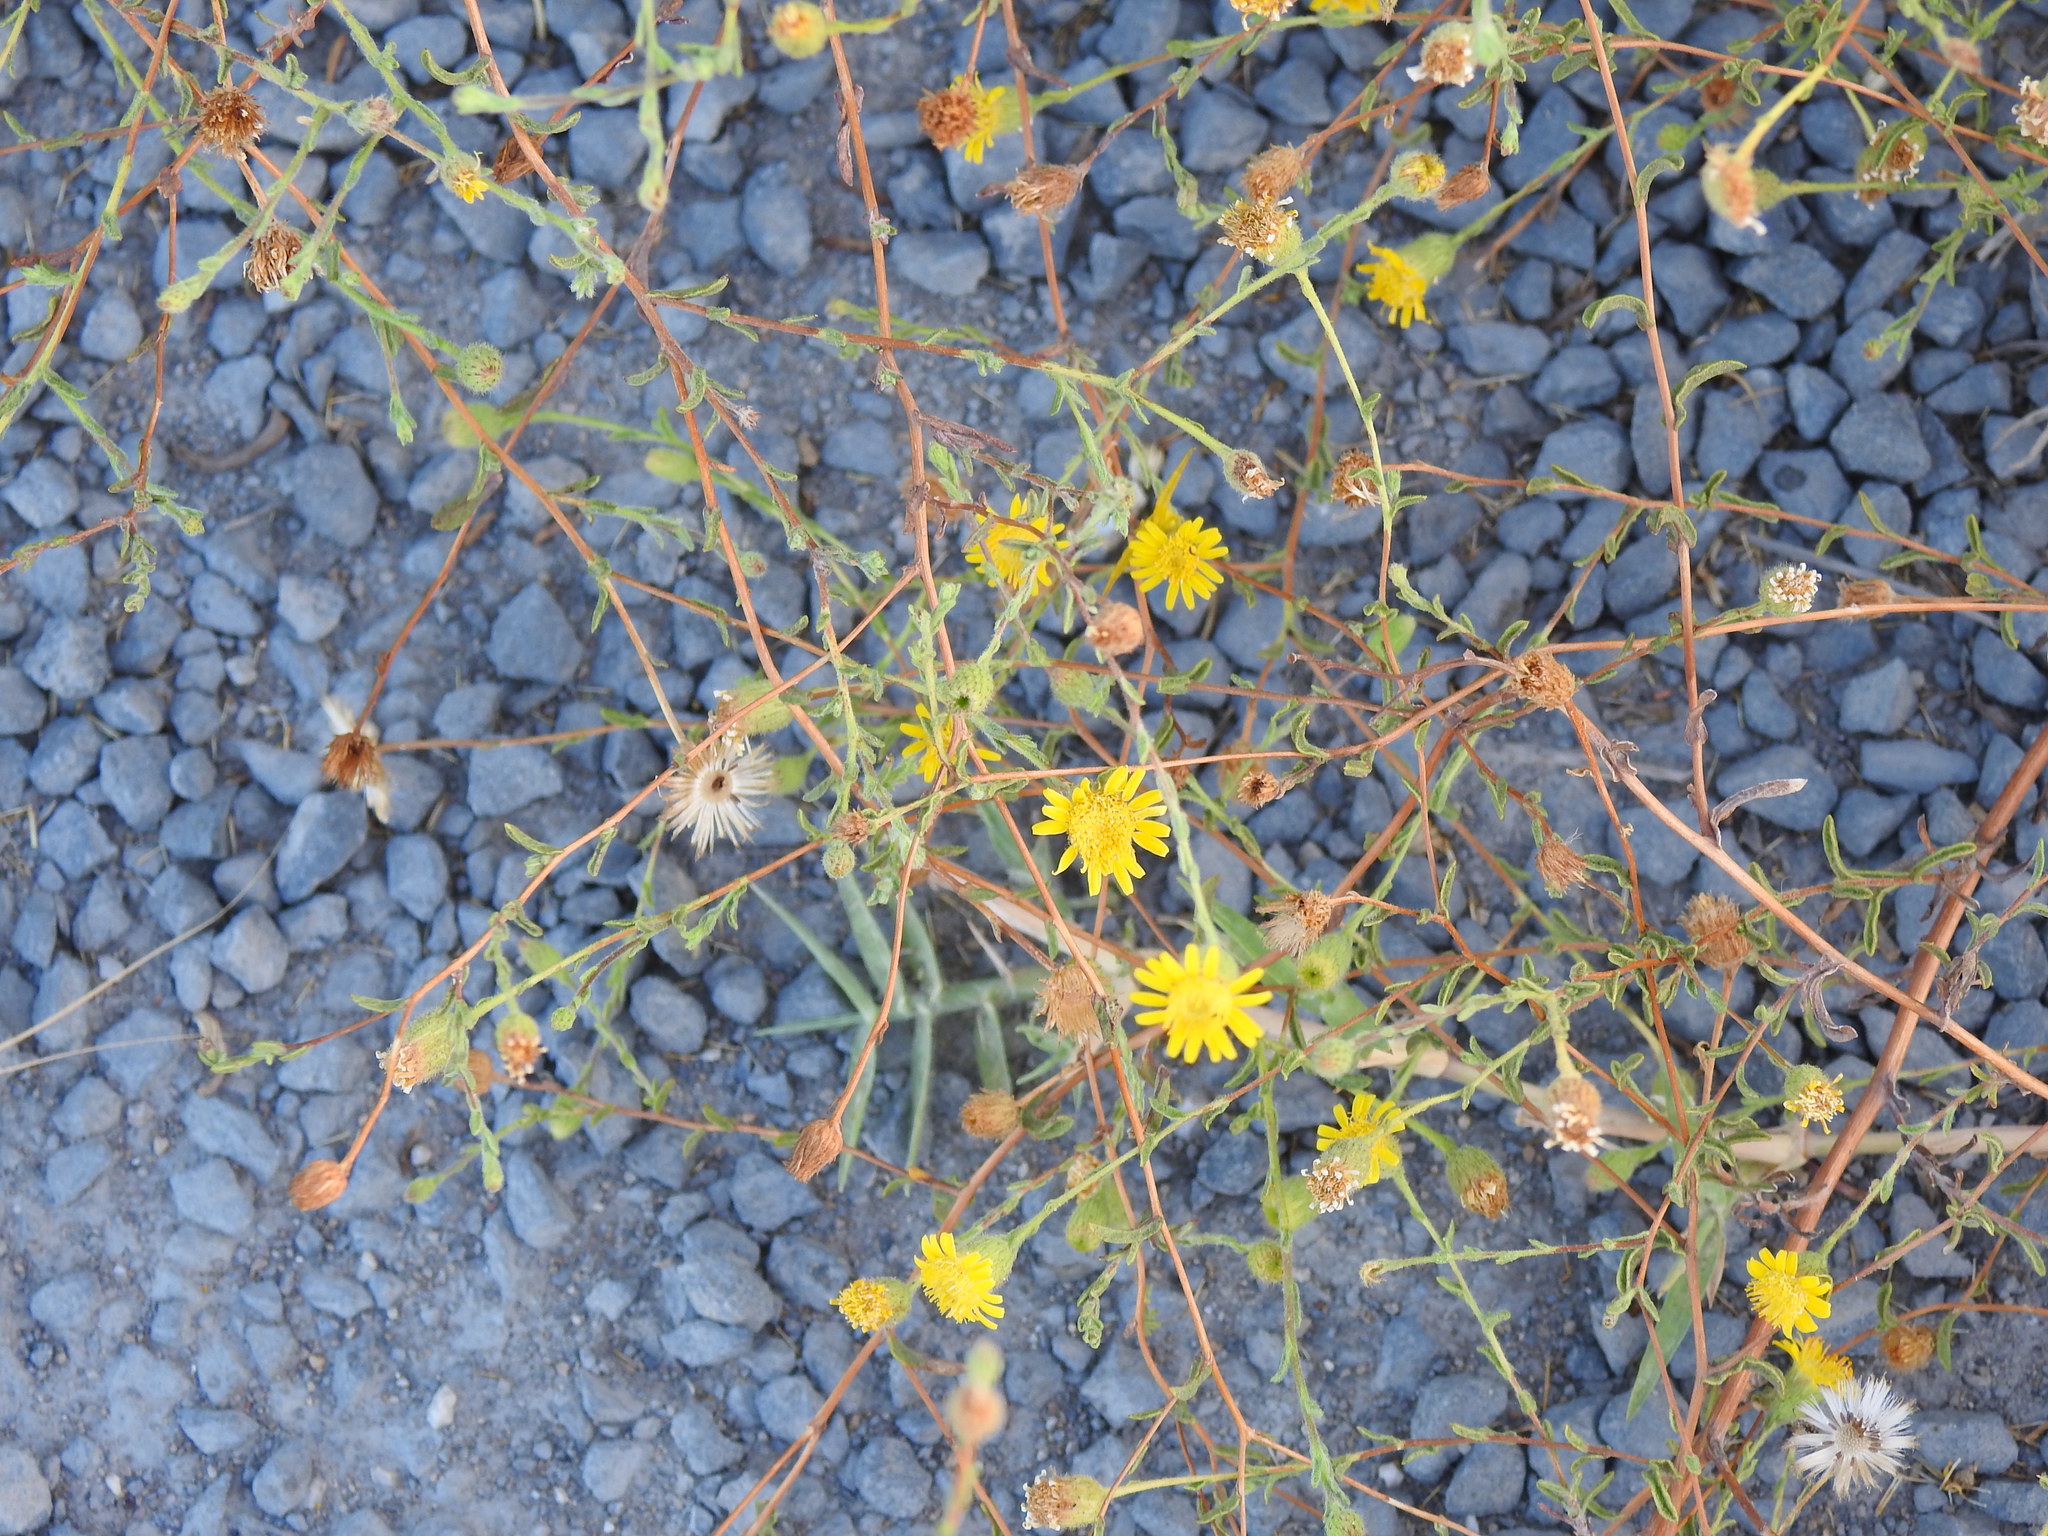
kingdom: Plantae
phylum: Tracheophyta
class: Magnoliopsida
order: Asterales
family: Asteraceae
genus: Pulicaria
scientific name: Pulicaria paludosa
